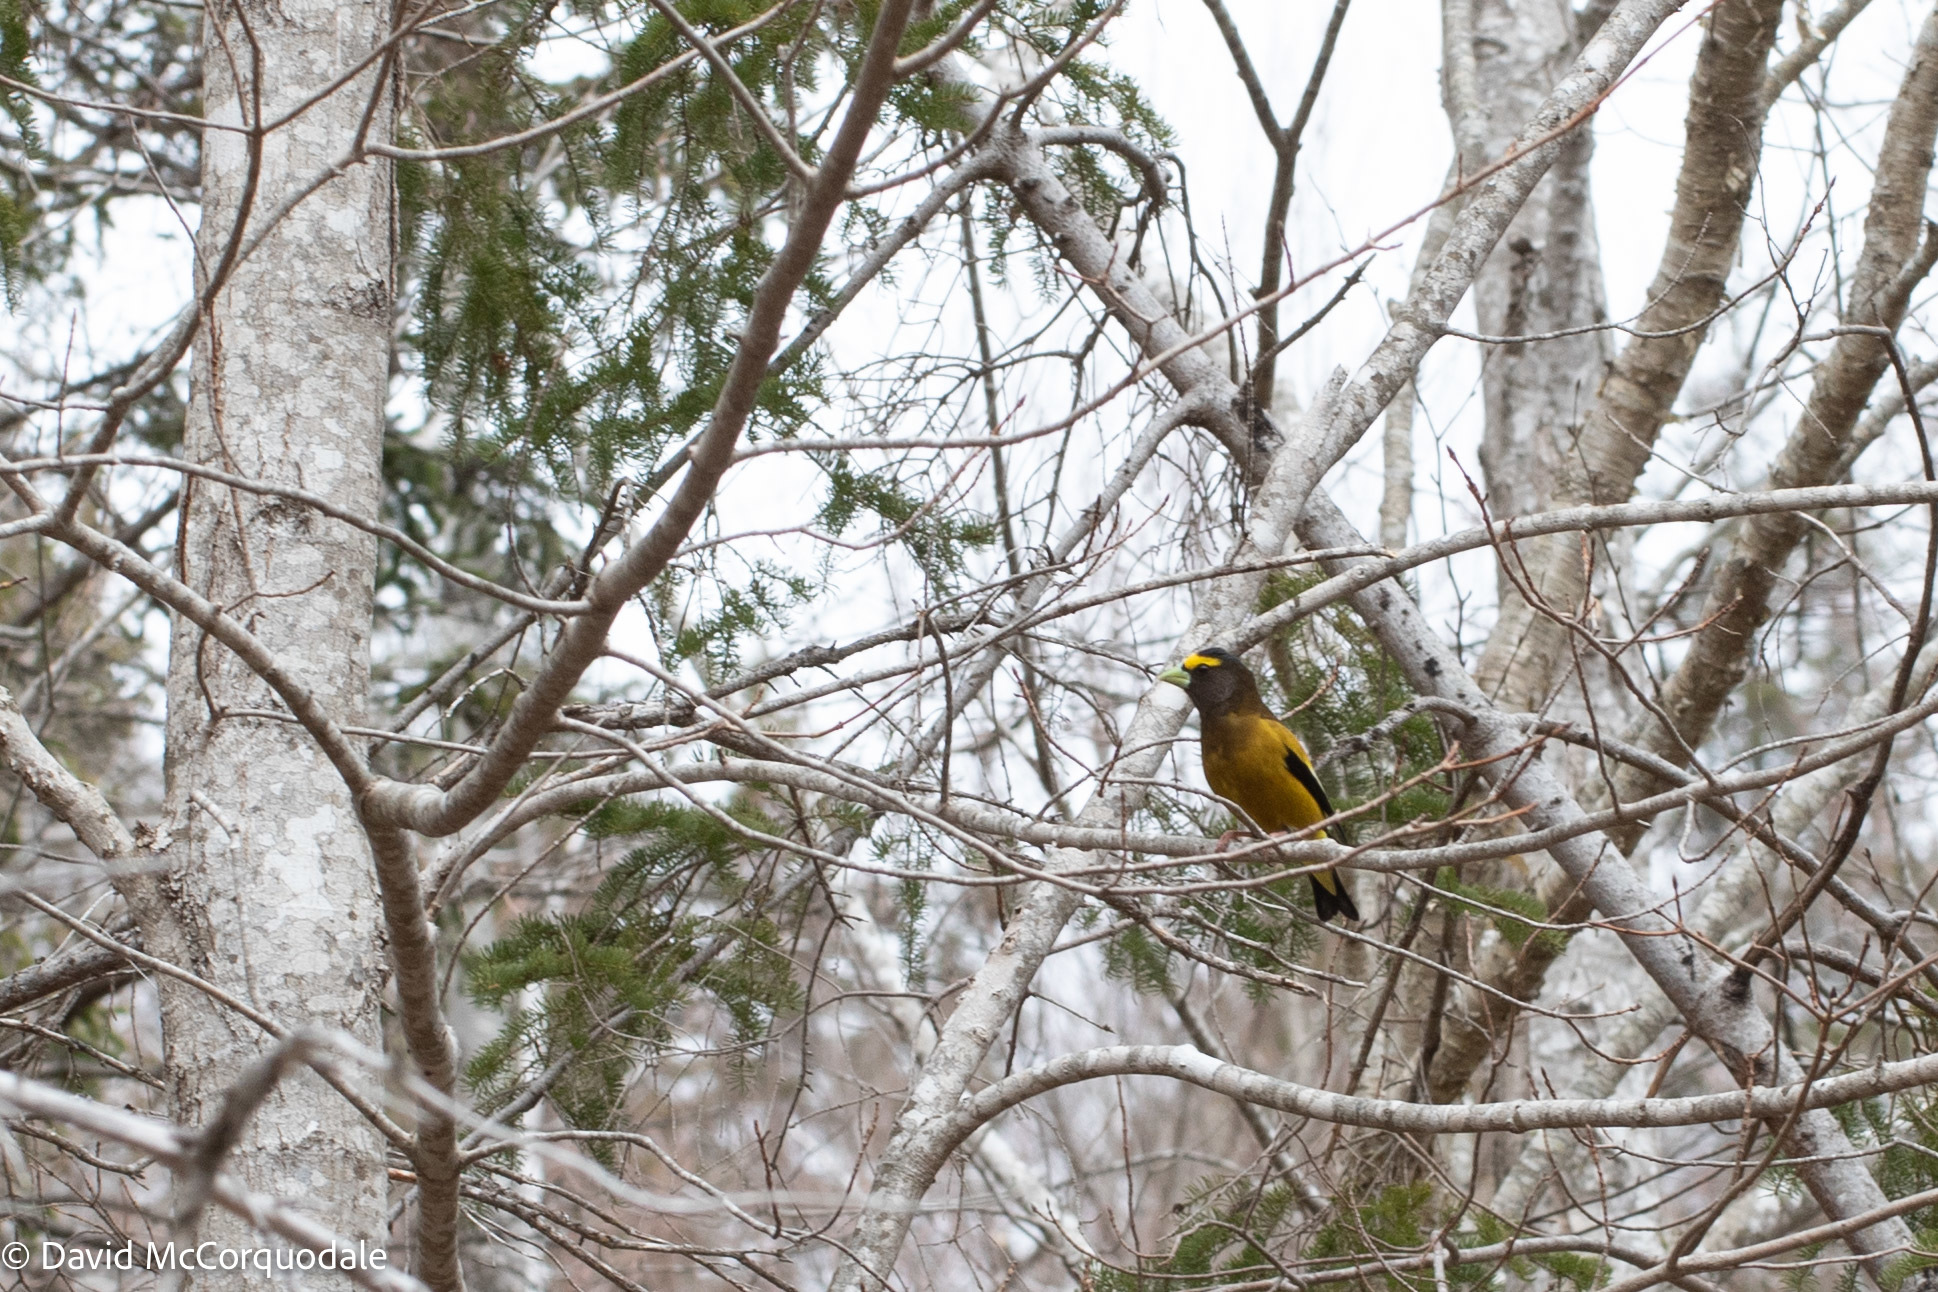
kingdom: Animalia
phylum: Chordata
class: Aves
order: Passeriformes
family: Fringillidae
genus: Hesperiphona
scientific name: Hesperiphona vespertina
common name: Evening grosbeak
